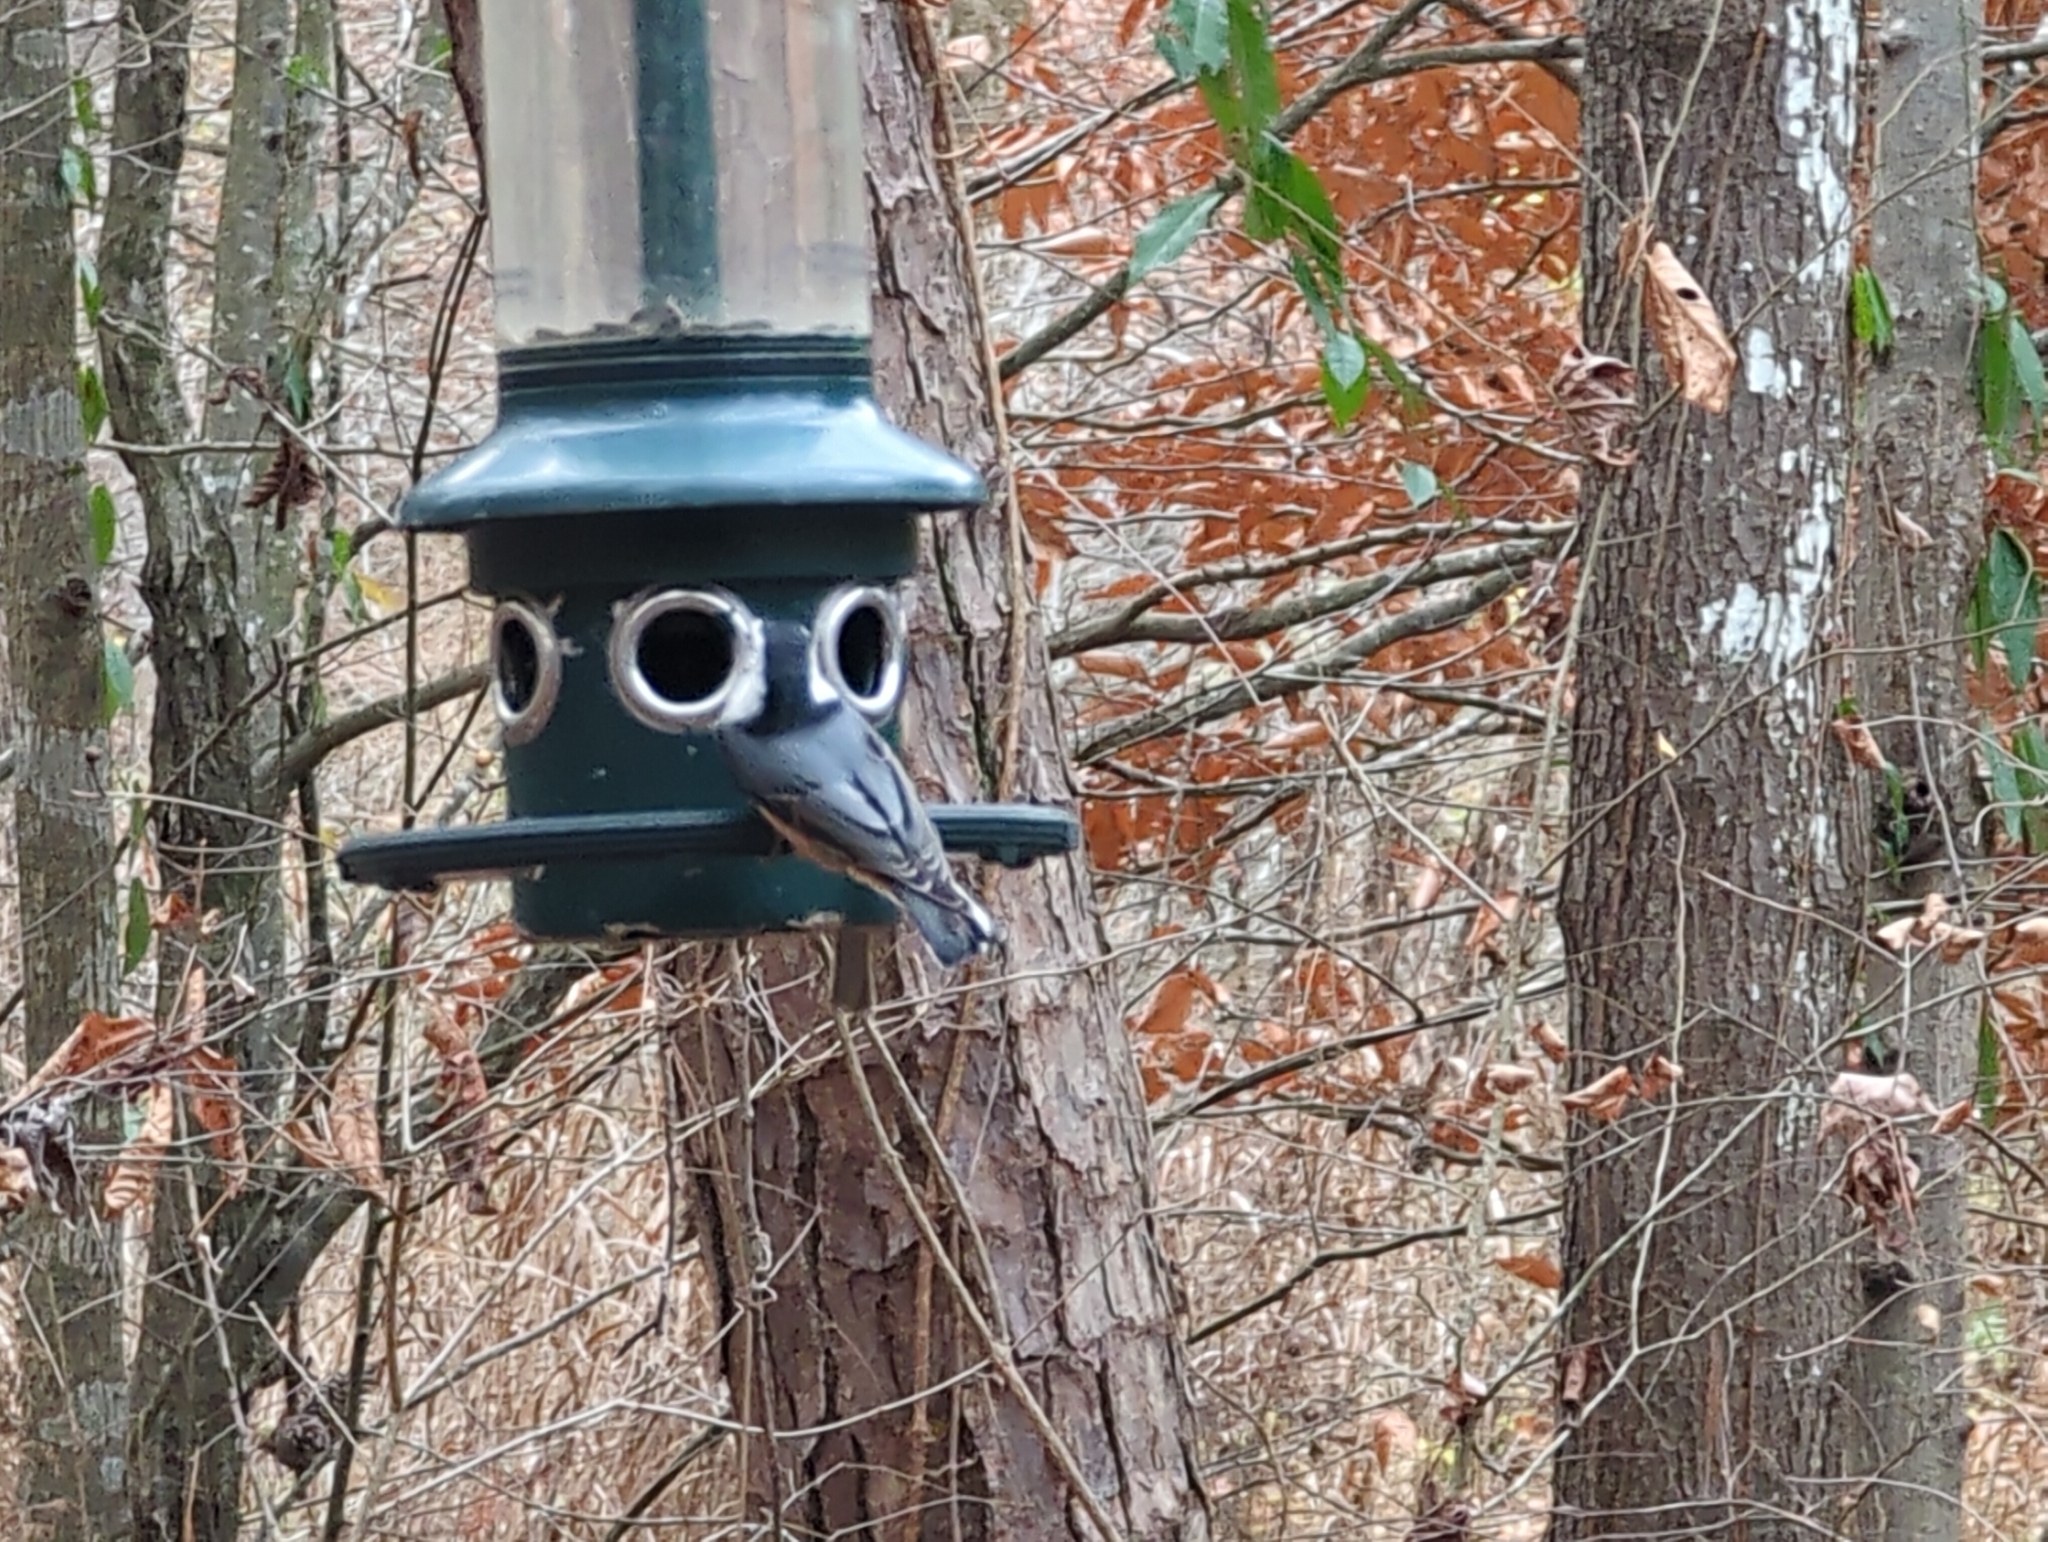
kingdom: Animalia
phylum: Chordata
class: Aves
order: Passeriformes
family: Sittidae
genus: Sitta
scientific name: Sitta carolinensis
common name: White-breasted nuthatch
